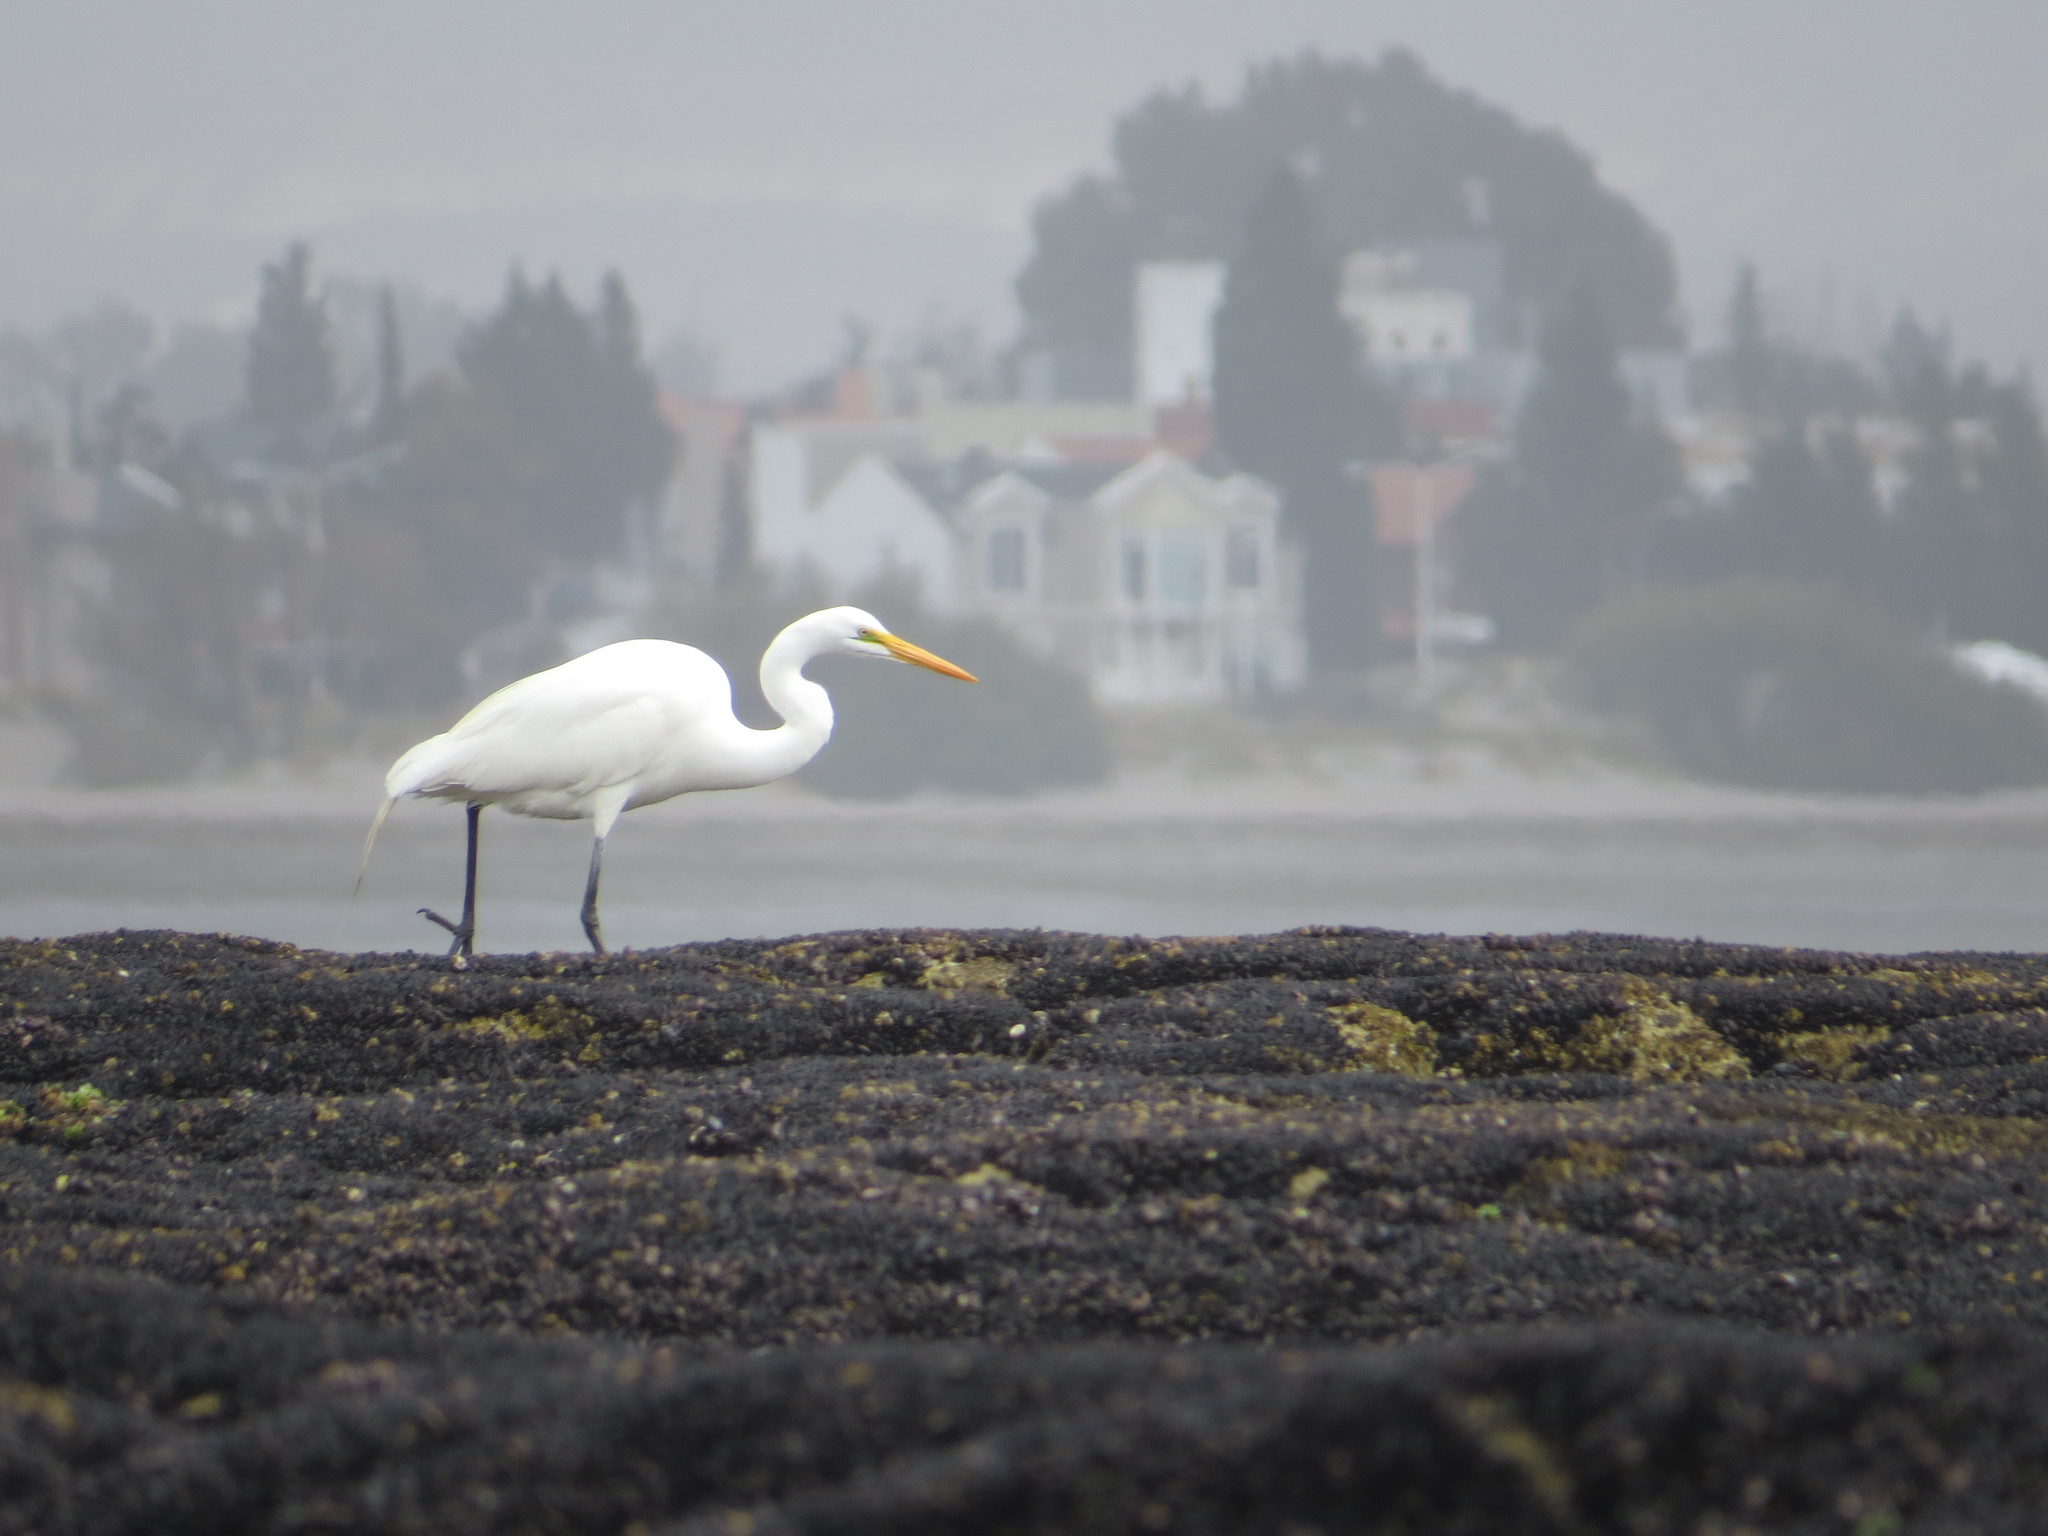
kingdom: Animalia
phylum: Chordata
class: Aves
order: Pelecaniformes
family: Ardeidae
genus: Ardea
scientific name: Ardea alba
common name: Great egret
